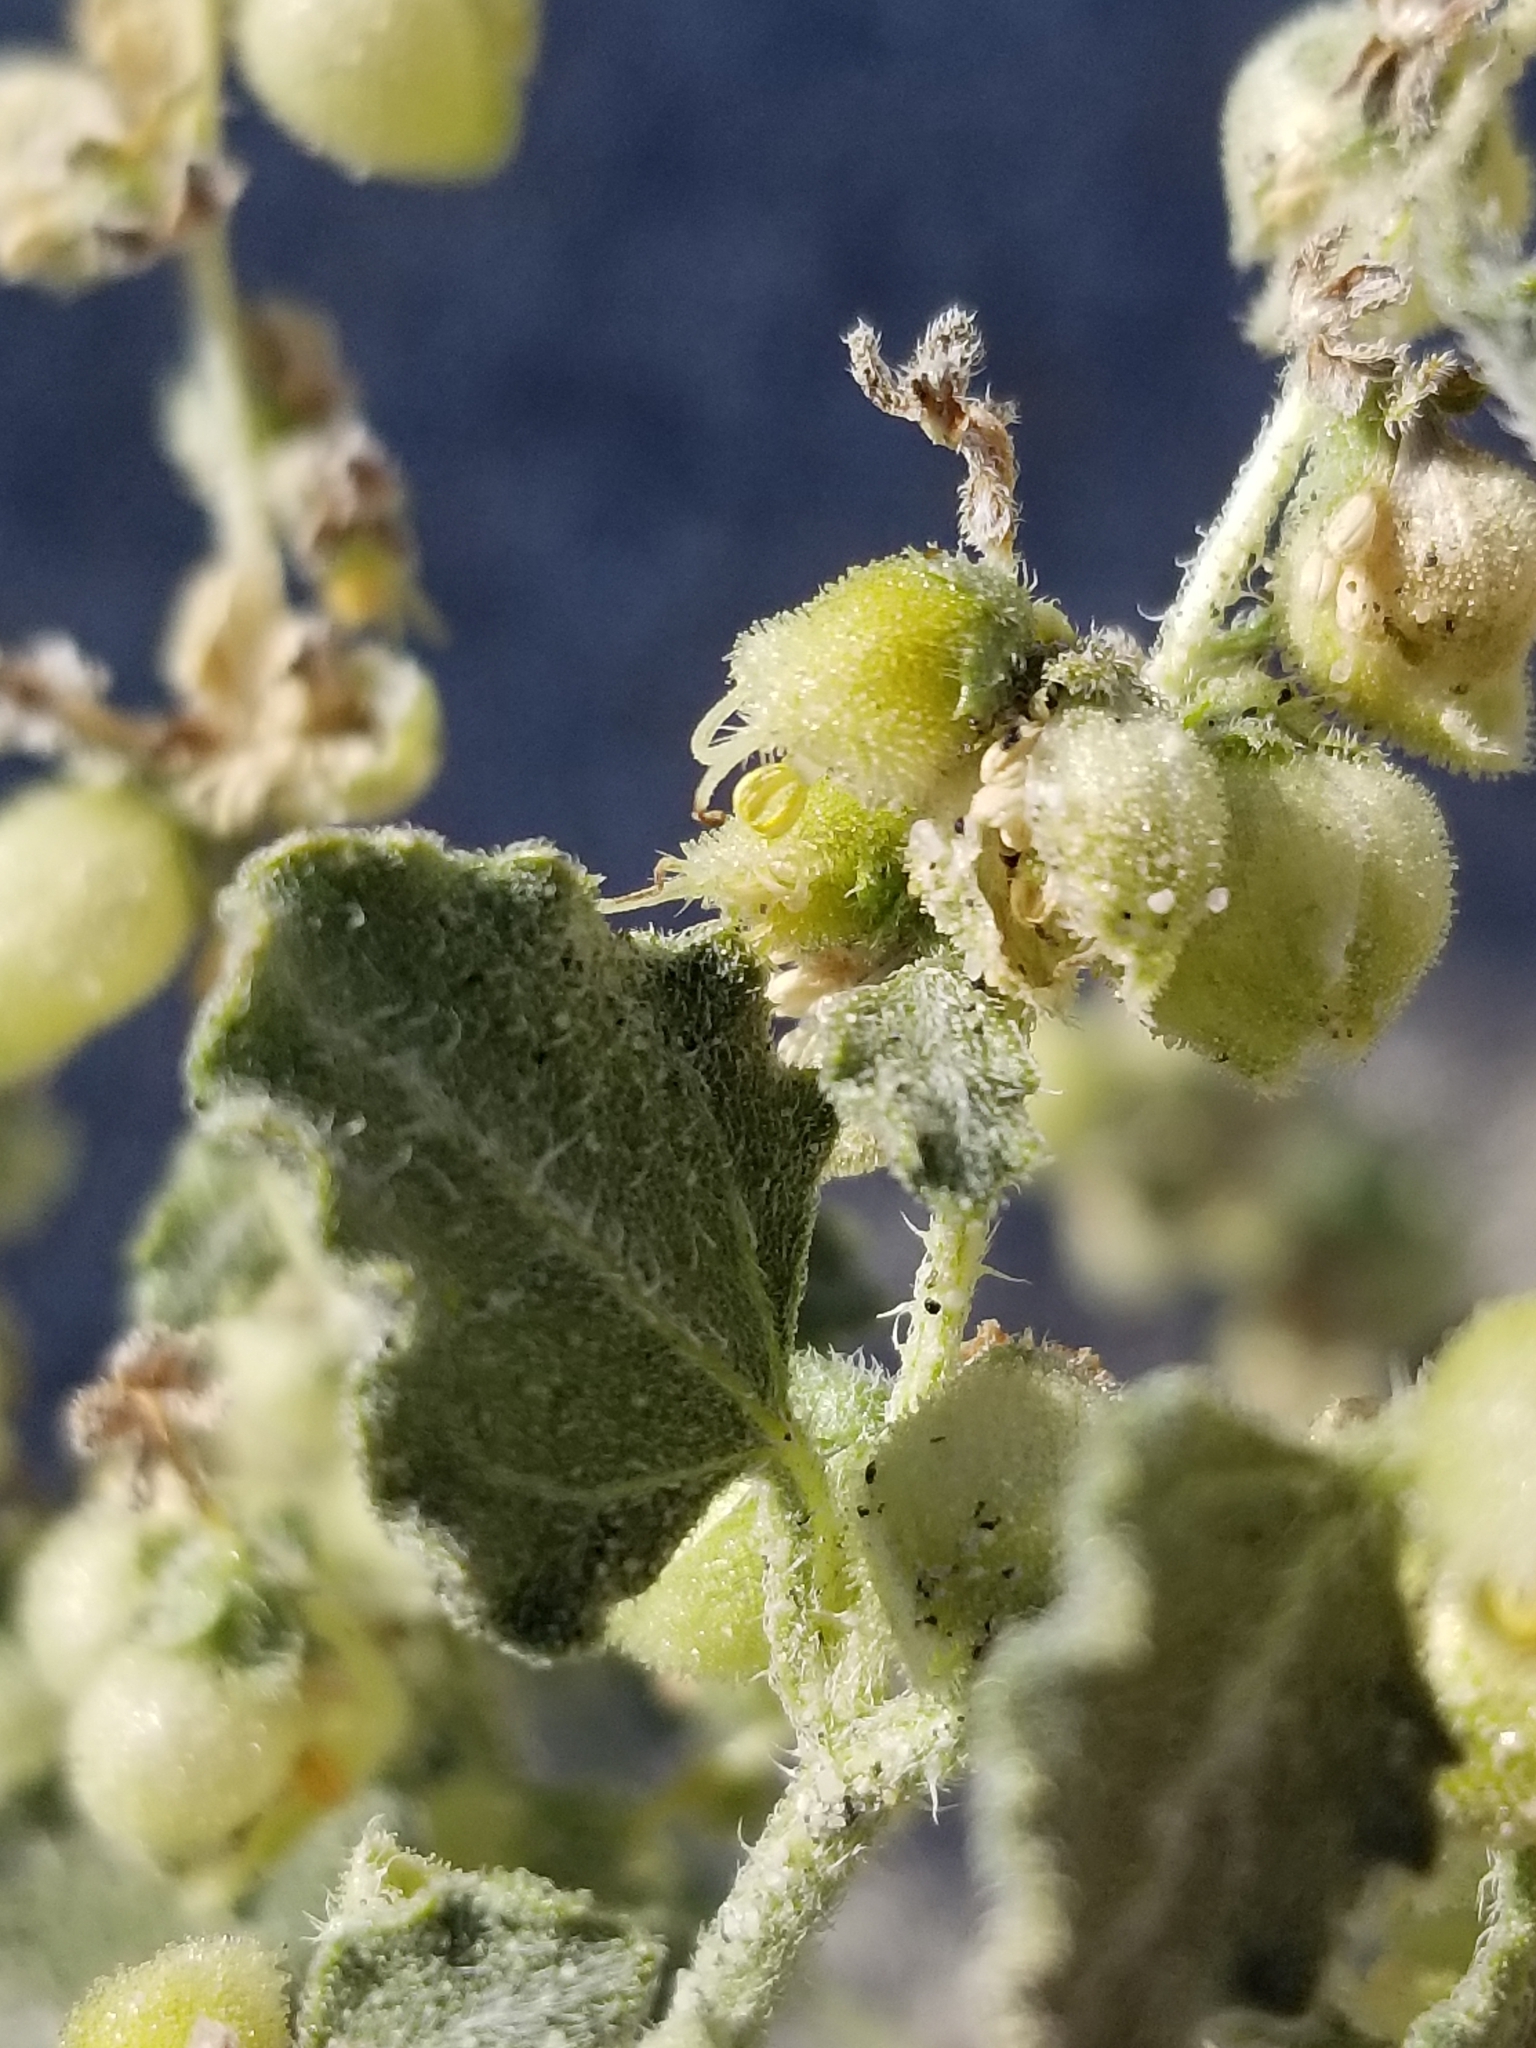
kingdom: Plantae
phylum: Tracheophyta
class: Magnoliopsida
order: Asterales
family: Asteraceae
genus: Dicoria
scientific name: Dicoria canescens
